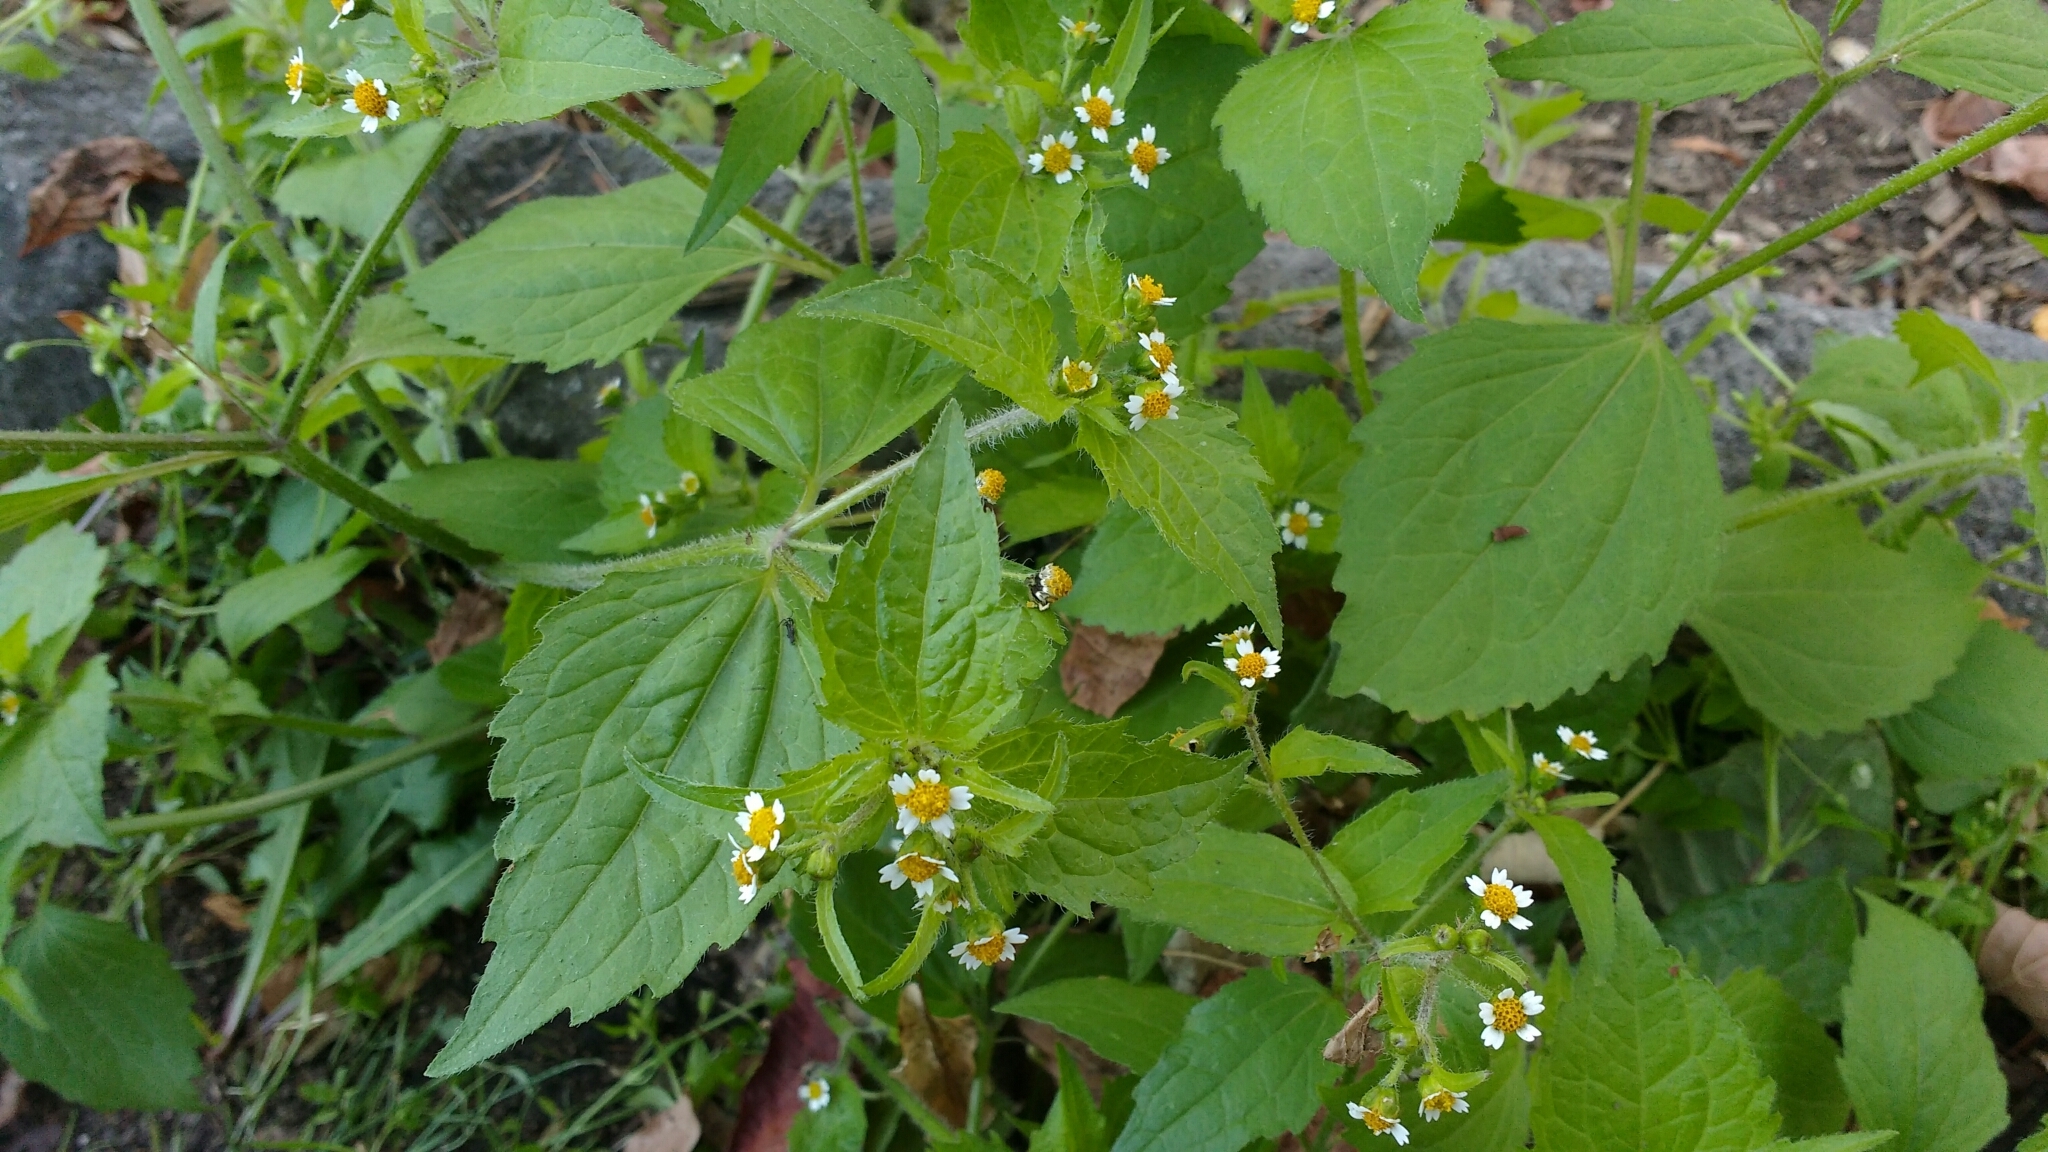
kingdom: Plantae
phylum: Tracheophyta
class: Magnoliopsida
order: Asterales
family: Asteraceae
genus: Galinsoga
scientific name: Galinsoga quadriradiata
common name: Shaggy soldier
